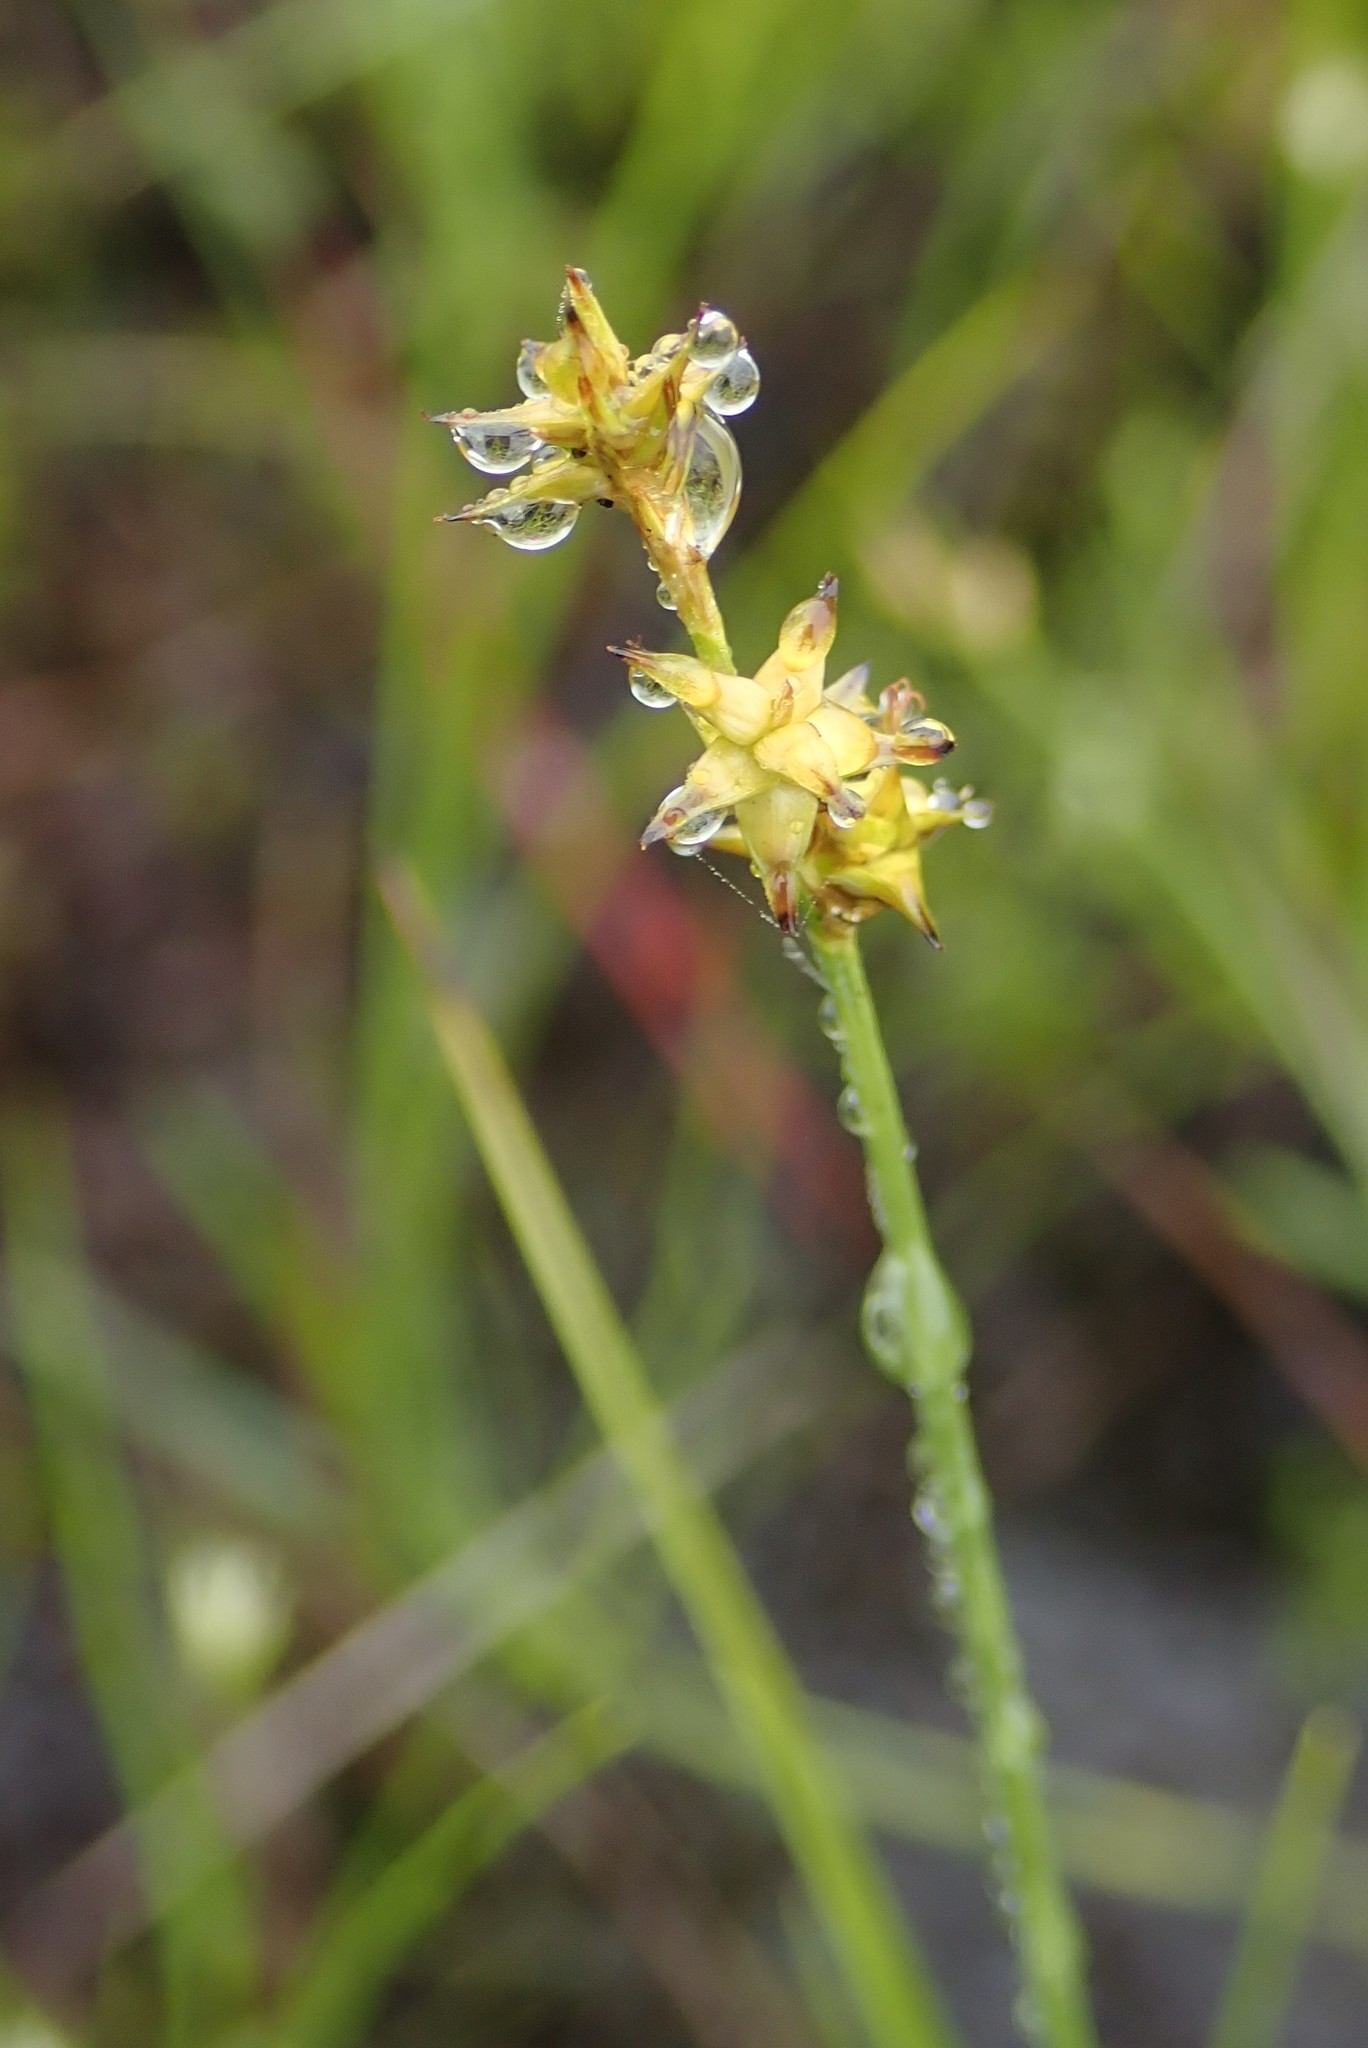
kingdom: Plantae
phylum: Tracheophyta
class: Liliopsida
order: Poales
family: Cyperaceae
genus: Carex
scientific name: Carex echinata
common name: Star sedge
